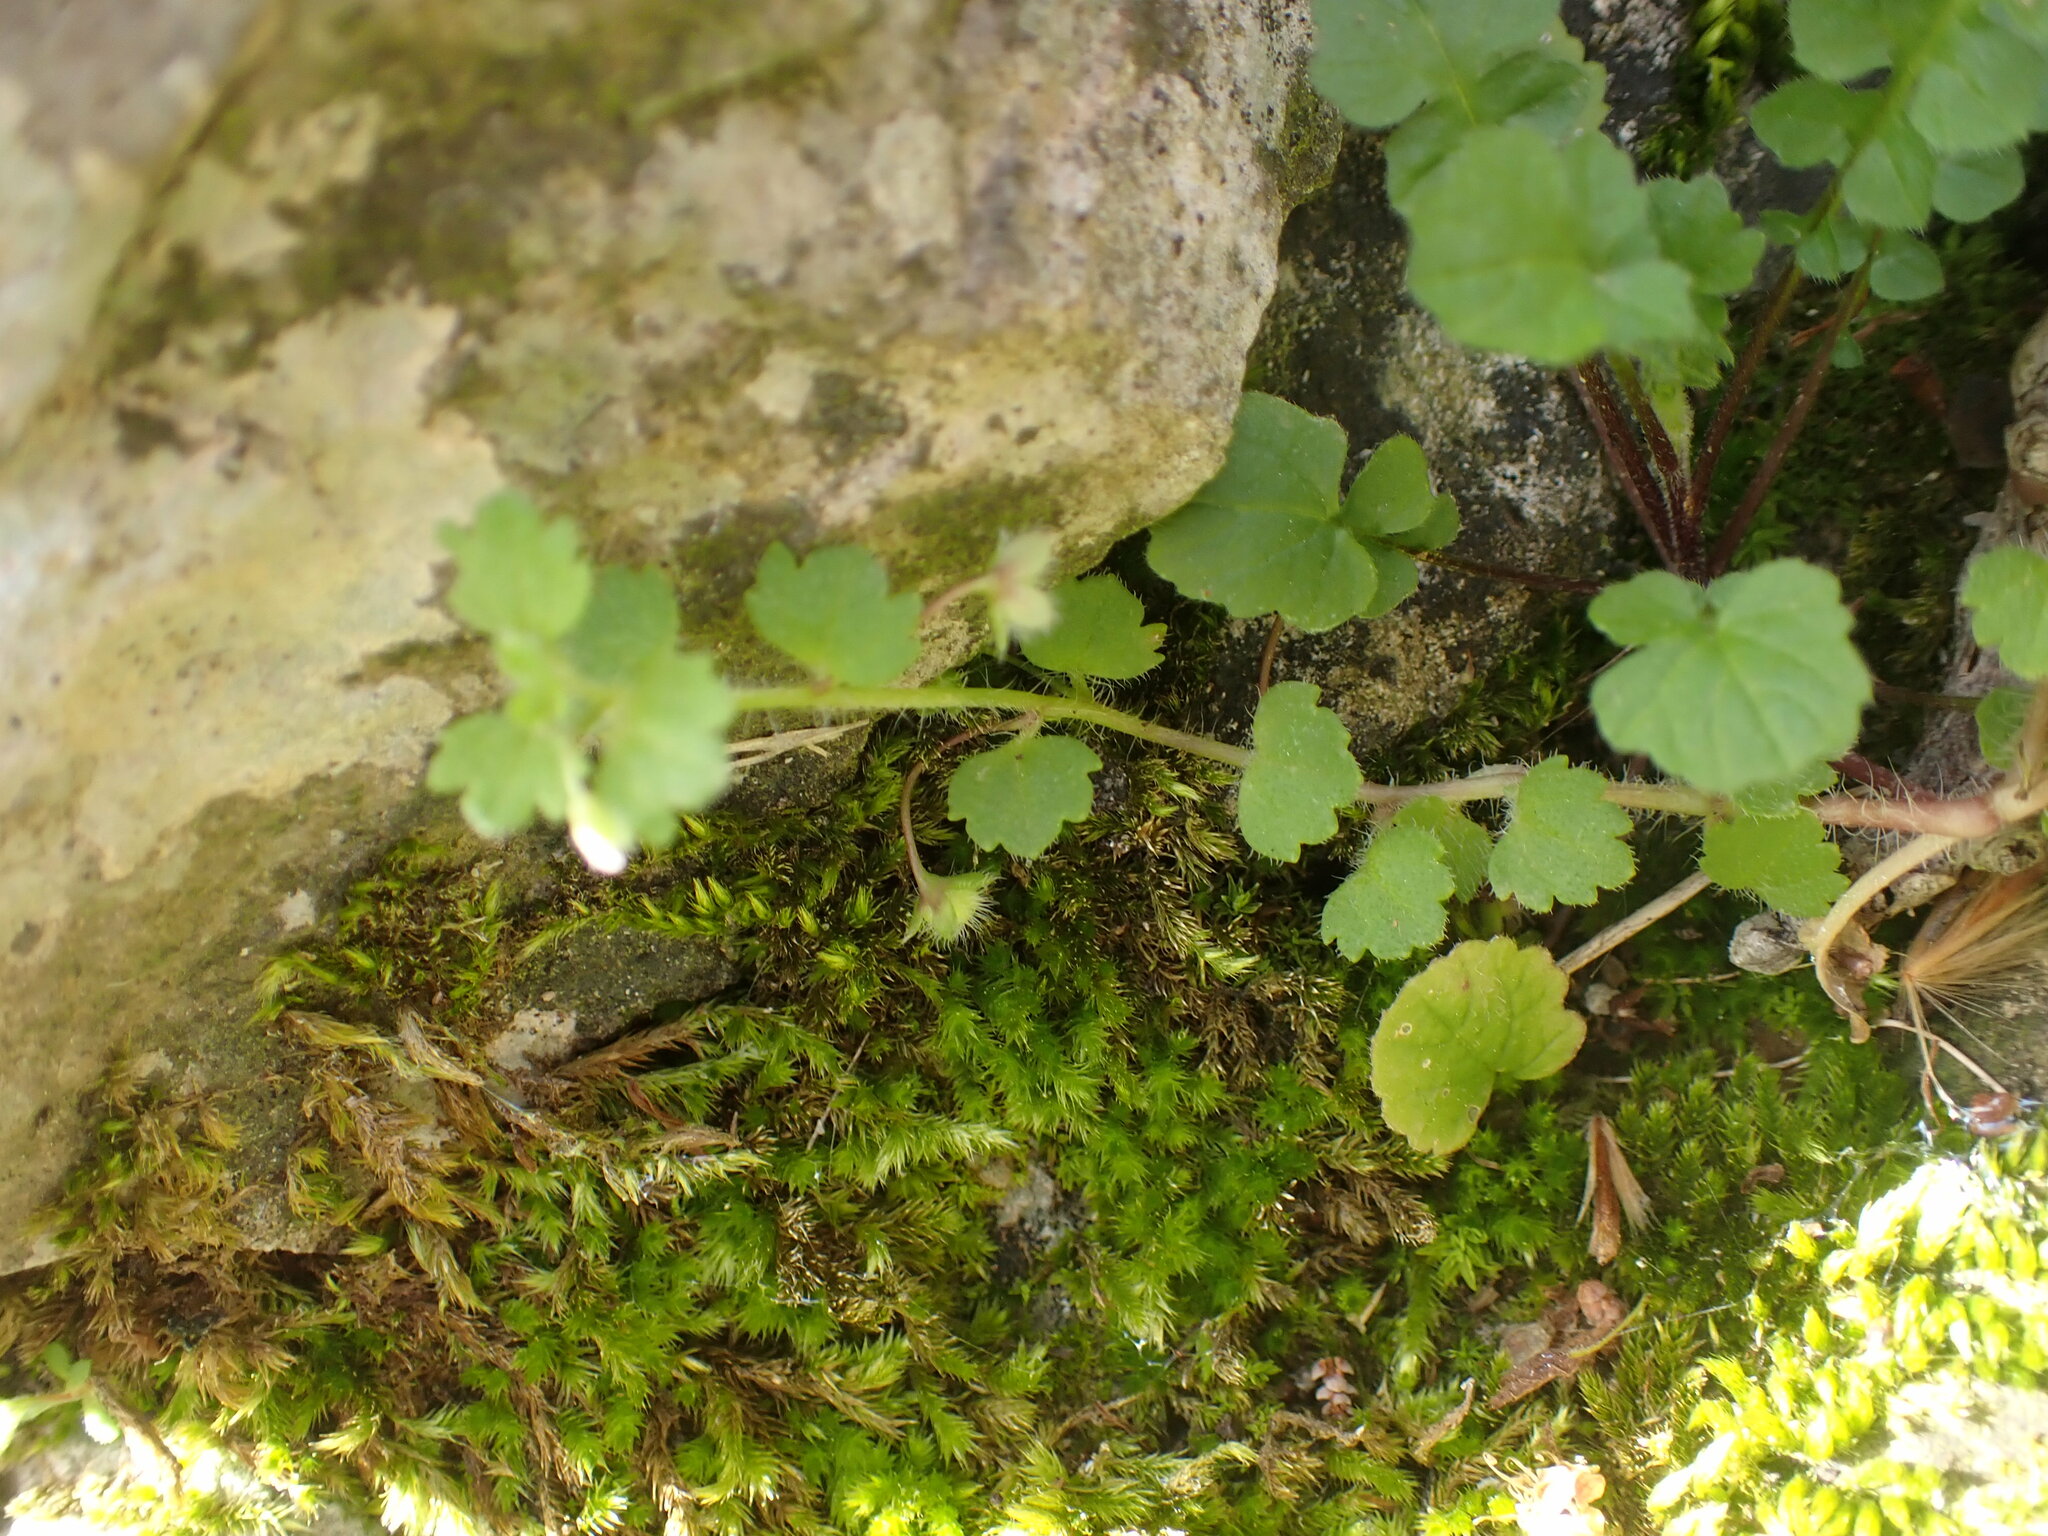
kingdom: Plantae
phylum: Tracheophyta
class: Magnoliopsida
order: Lamiales
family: Plantaginaceae
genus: Veronica
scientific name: Veronica cymbalaria
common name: Pale speedwell
